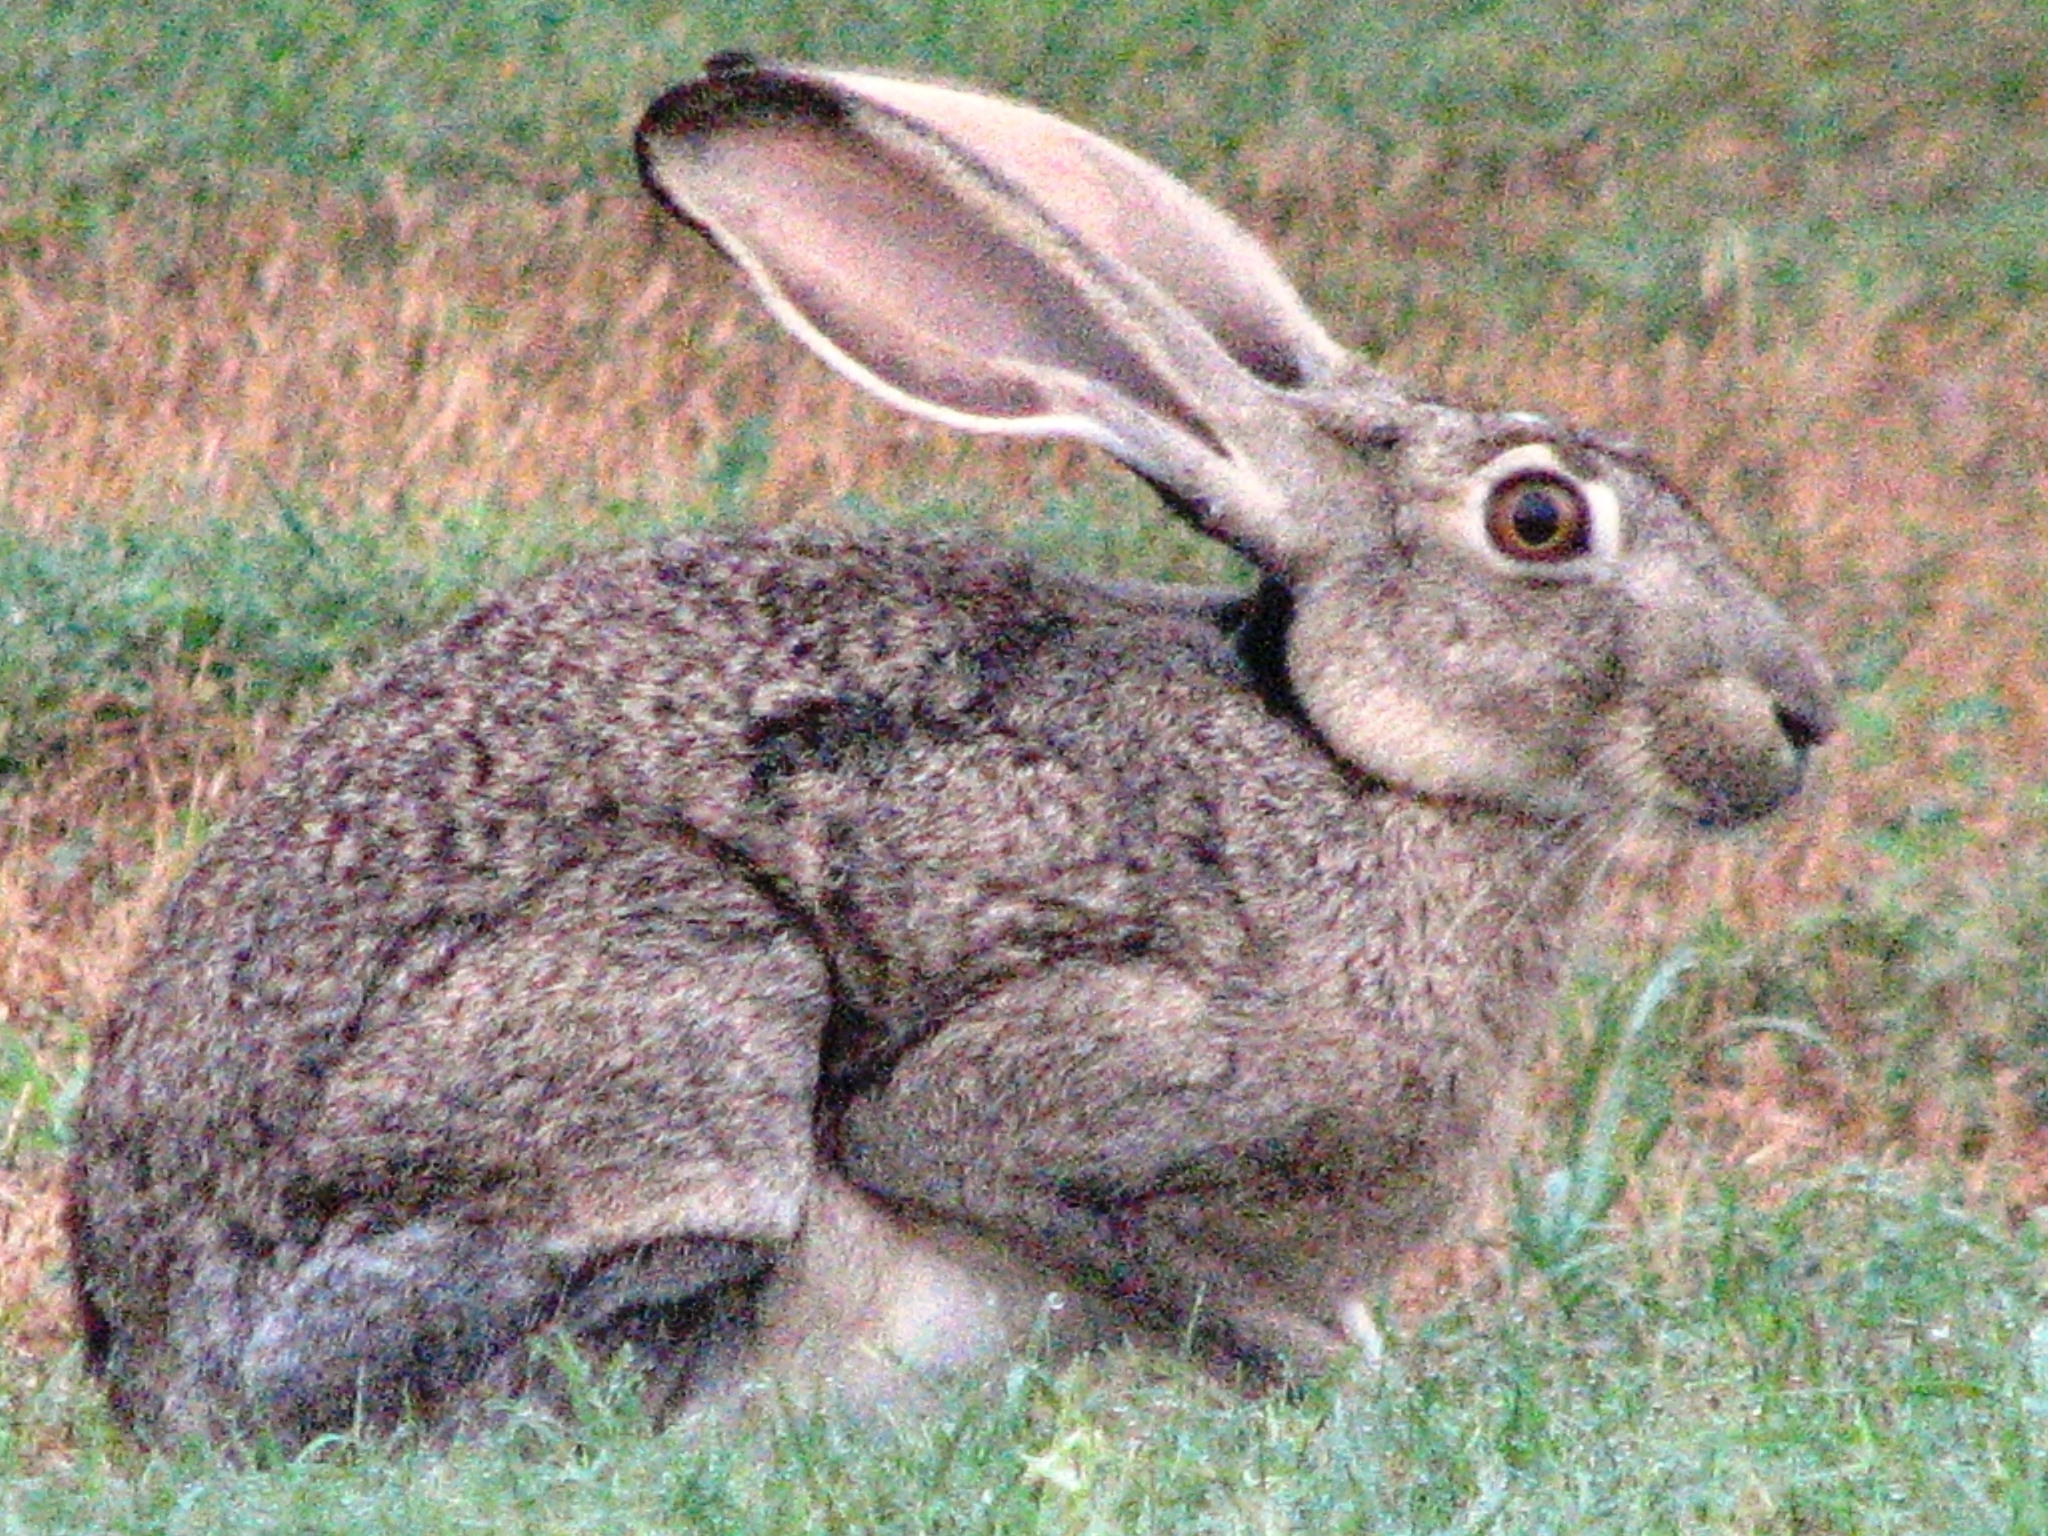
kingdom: Animalia
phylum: Chordata
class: Mammalia
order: Lagomorpha
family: Leporidae
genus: Lepus
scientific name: Lepus californicus
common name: Black-tailed jackrabbit
